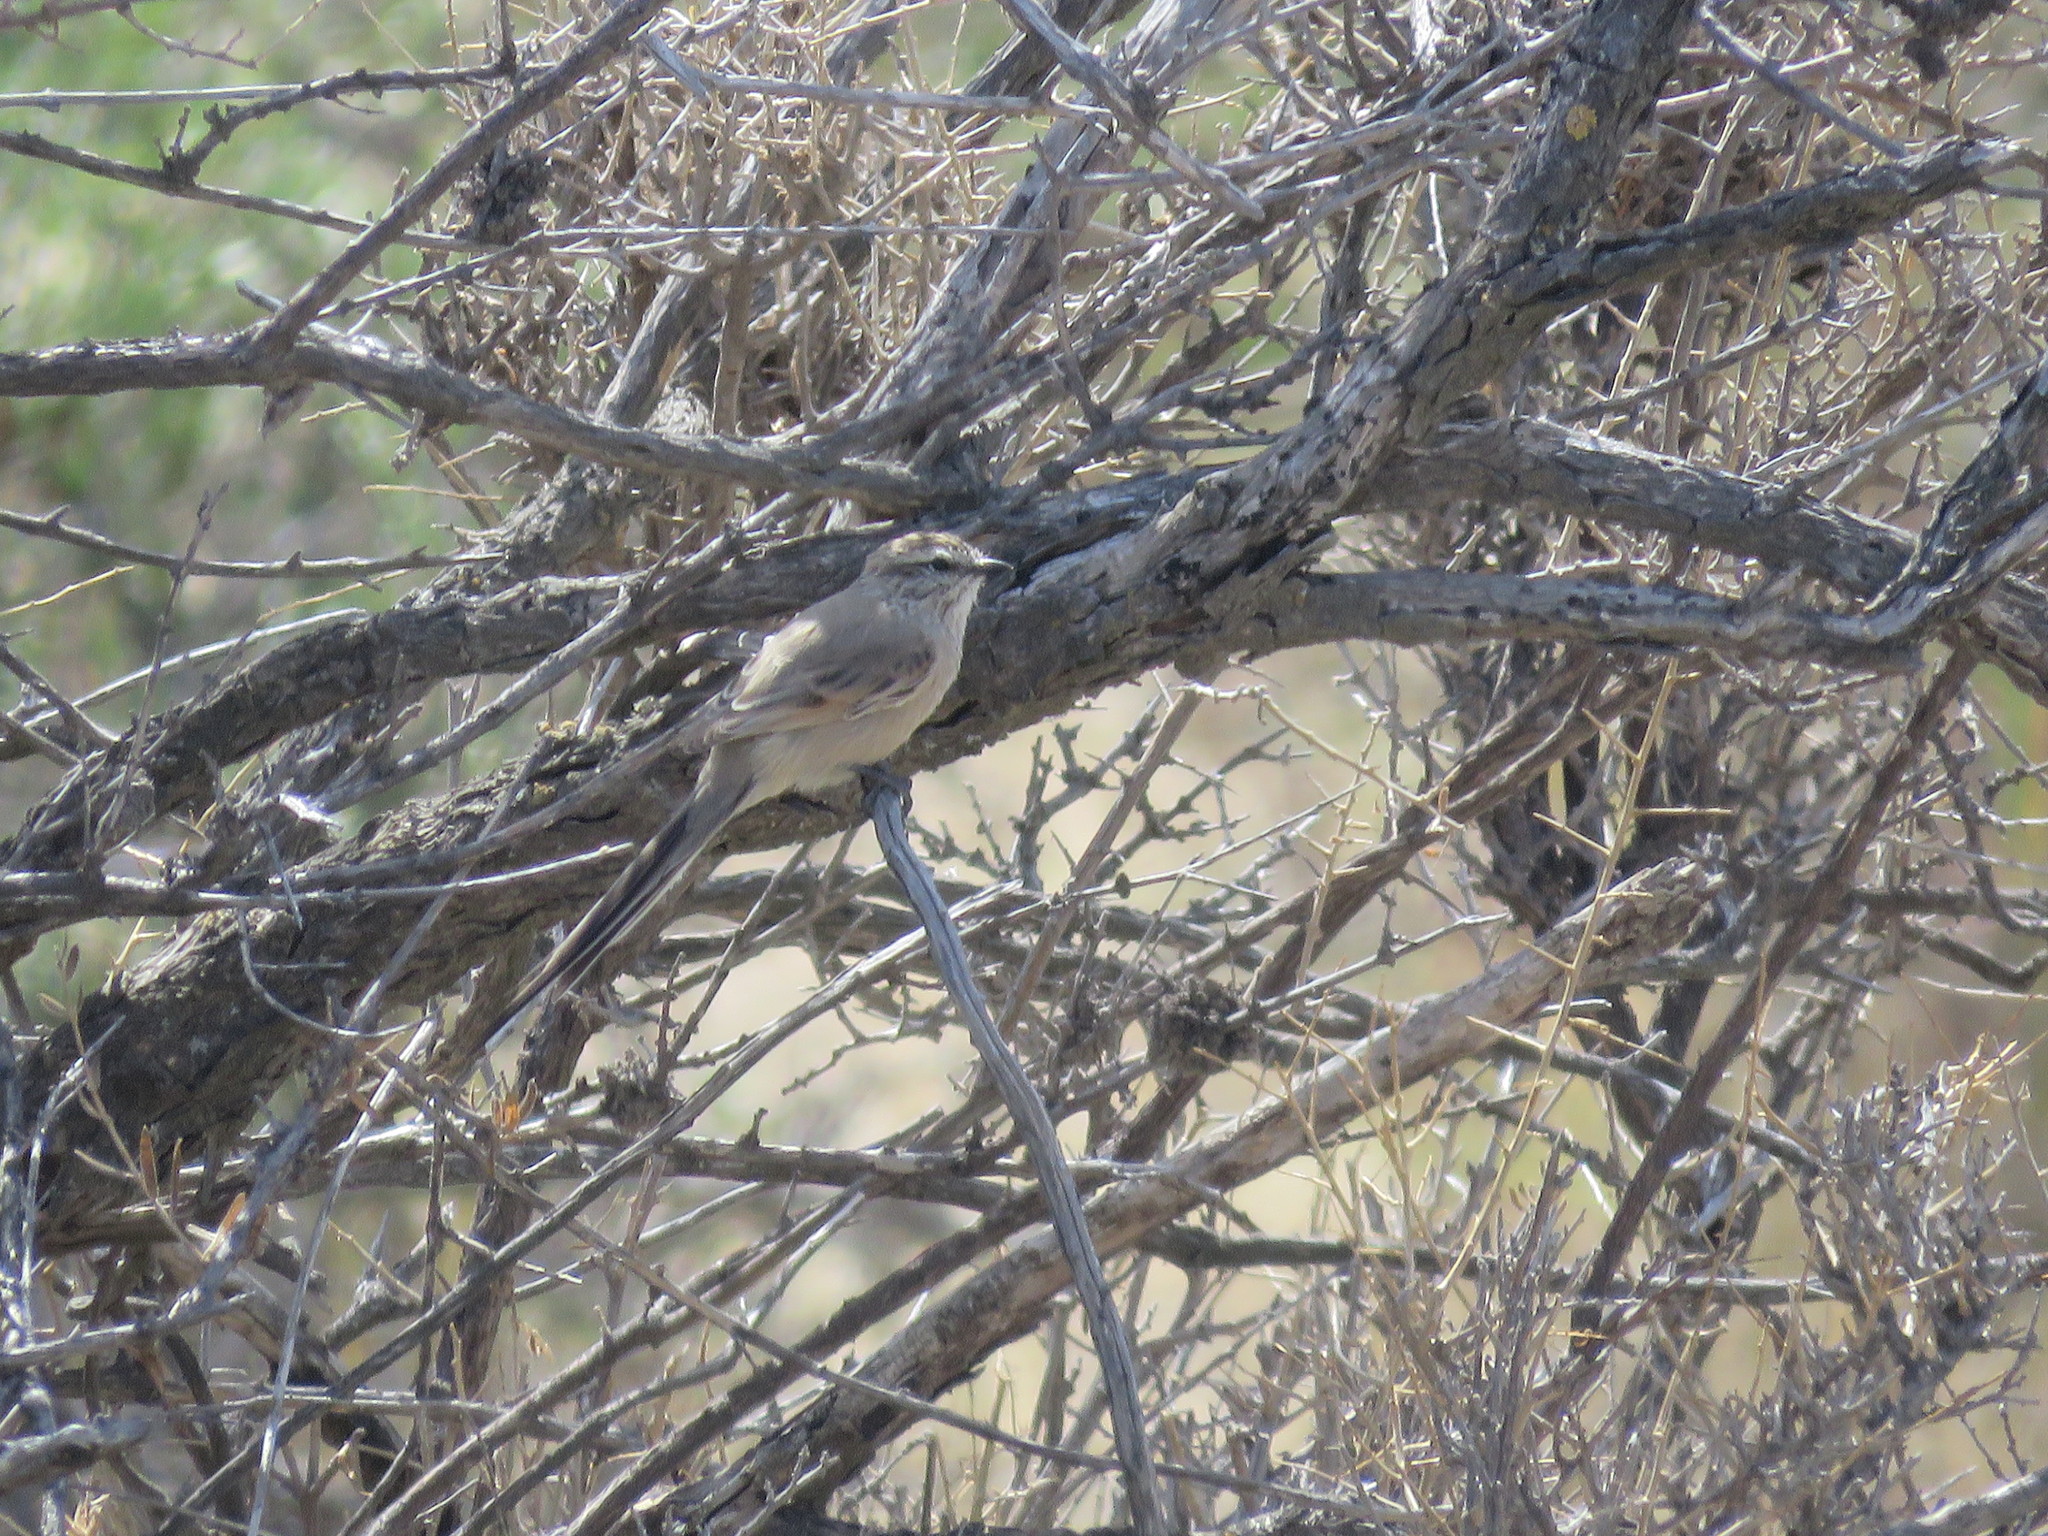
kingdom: Animalia
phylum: Chordata
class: Aves
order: Passeriformes
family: Furnariidae
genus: Leptasthenura
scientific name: Leptasthenura aegithaloides
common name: Plain-mantled tit-spinetail
